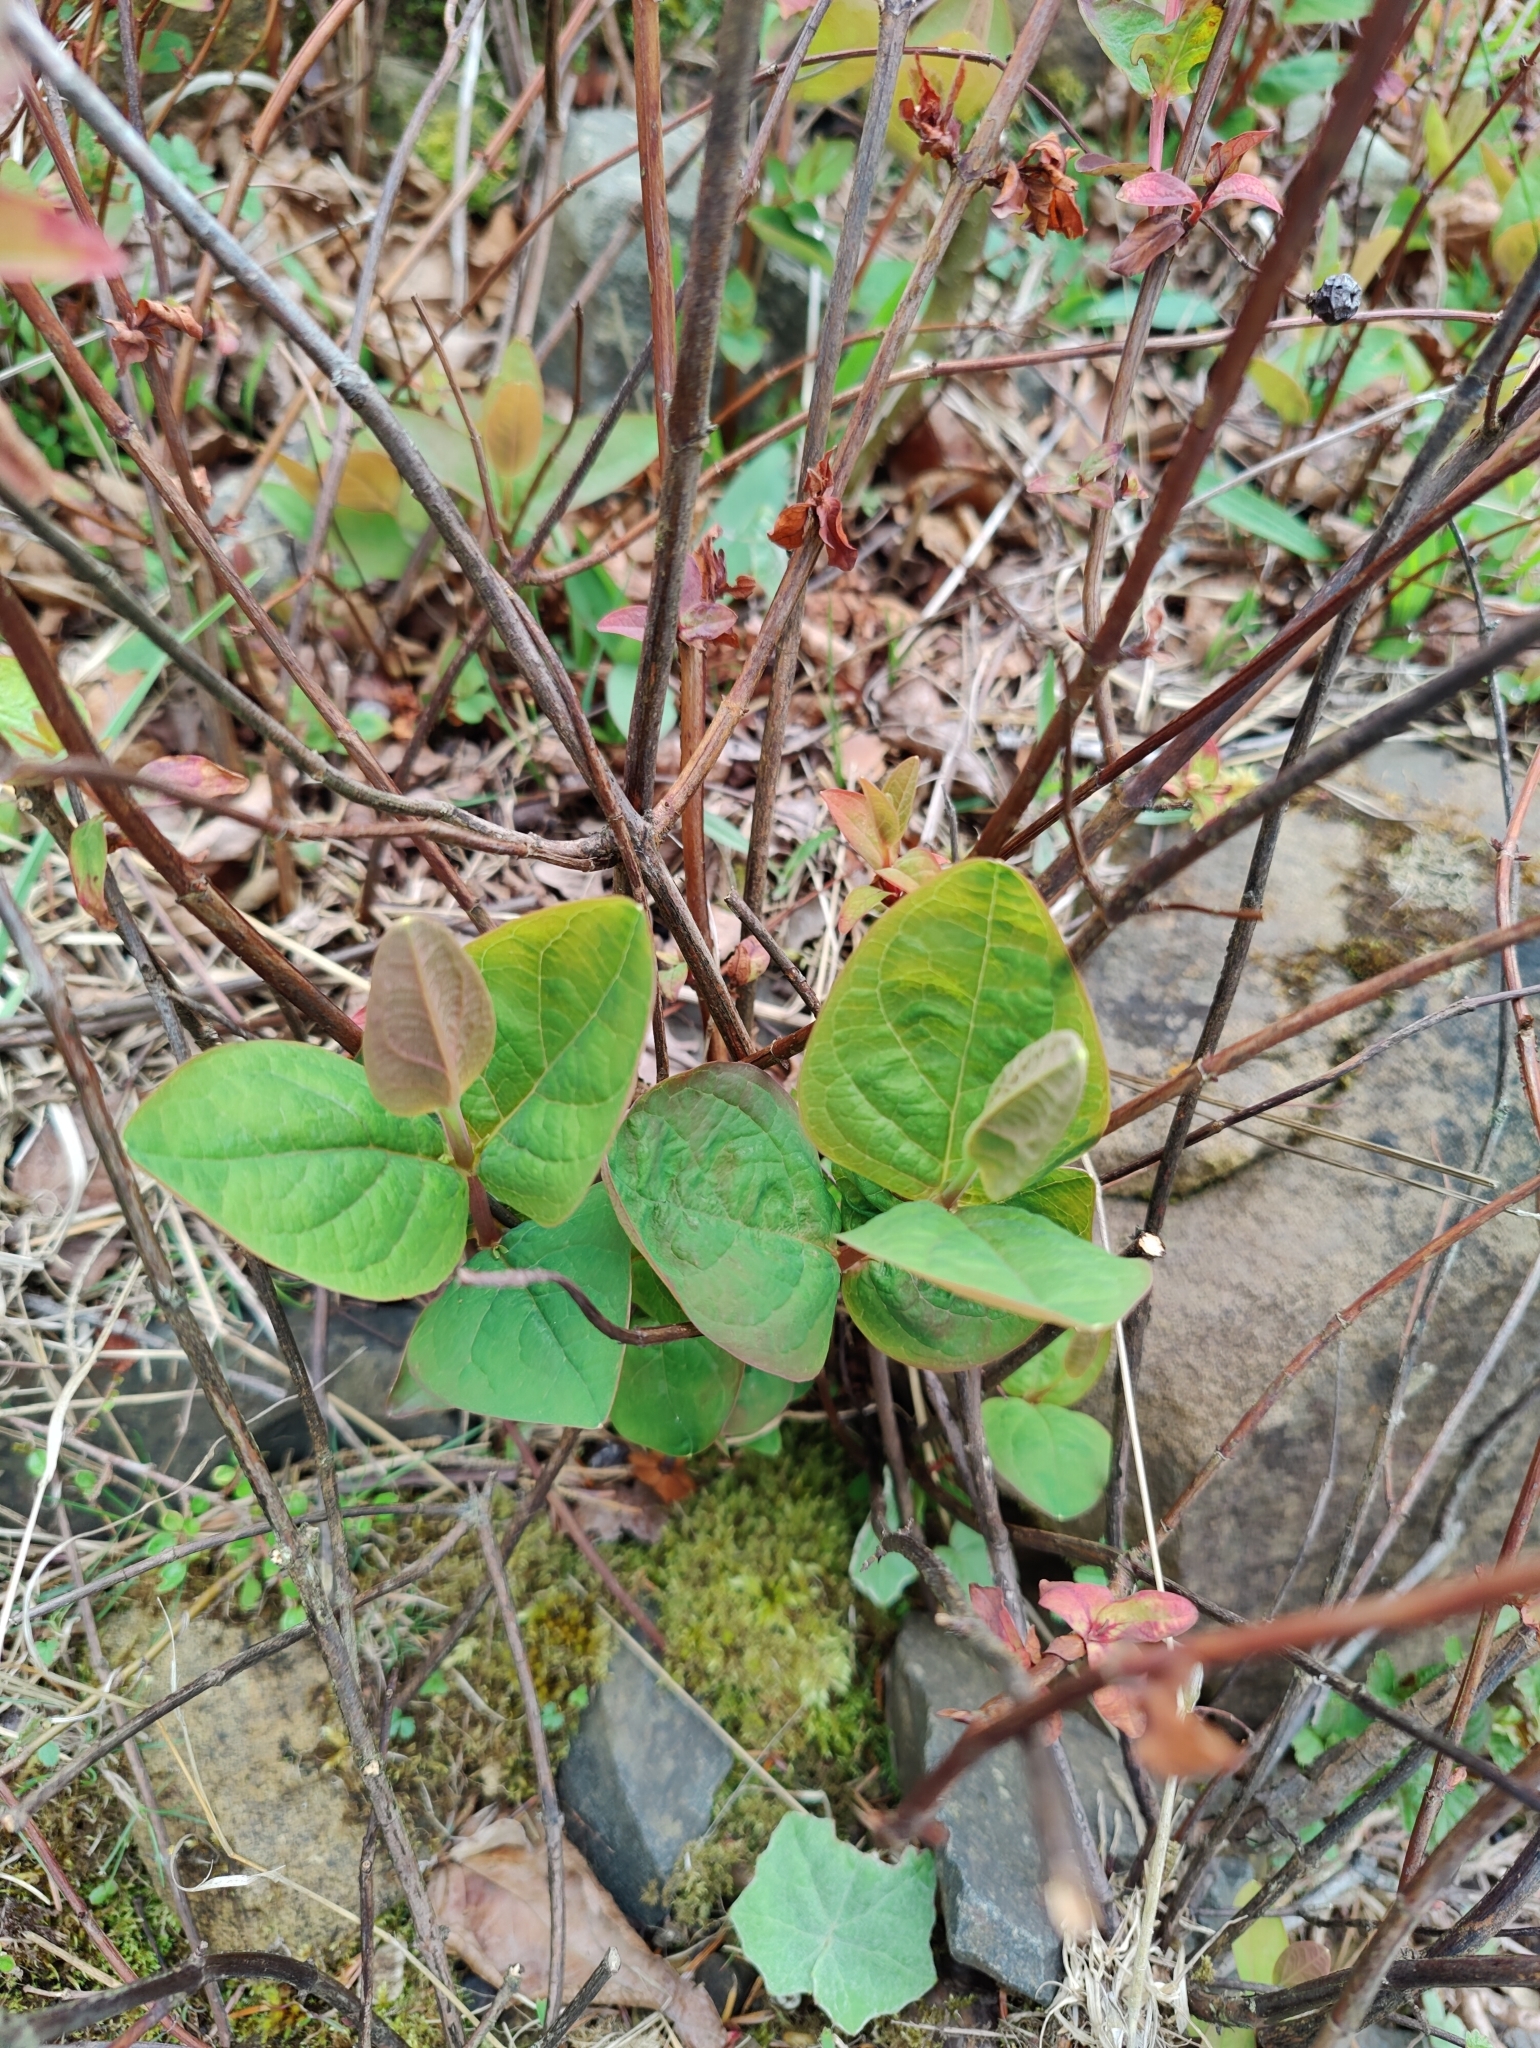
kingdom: Plantae
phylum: Tracheophyta
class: Magnoliopsida
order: Malpighiales
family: Hypericaceae
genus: Hypericum
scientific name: Hypericum androsaemum
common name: Sweet-amber
